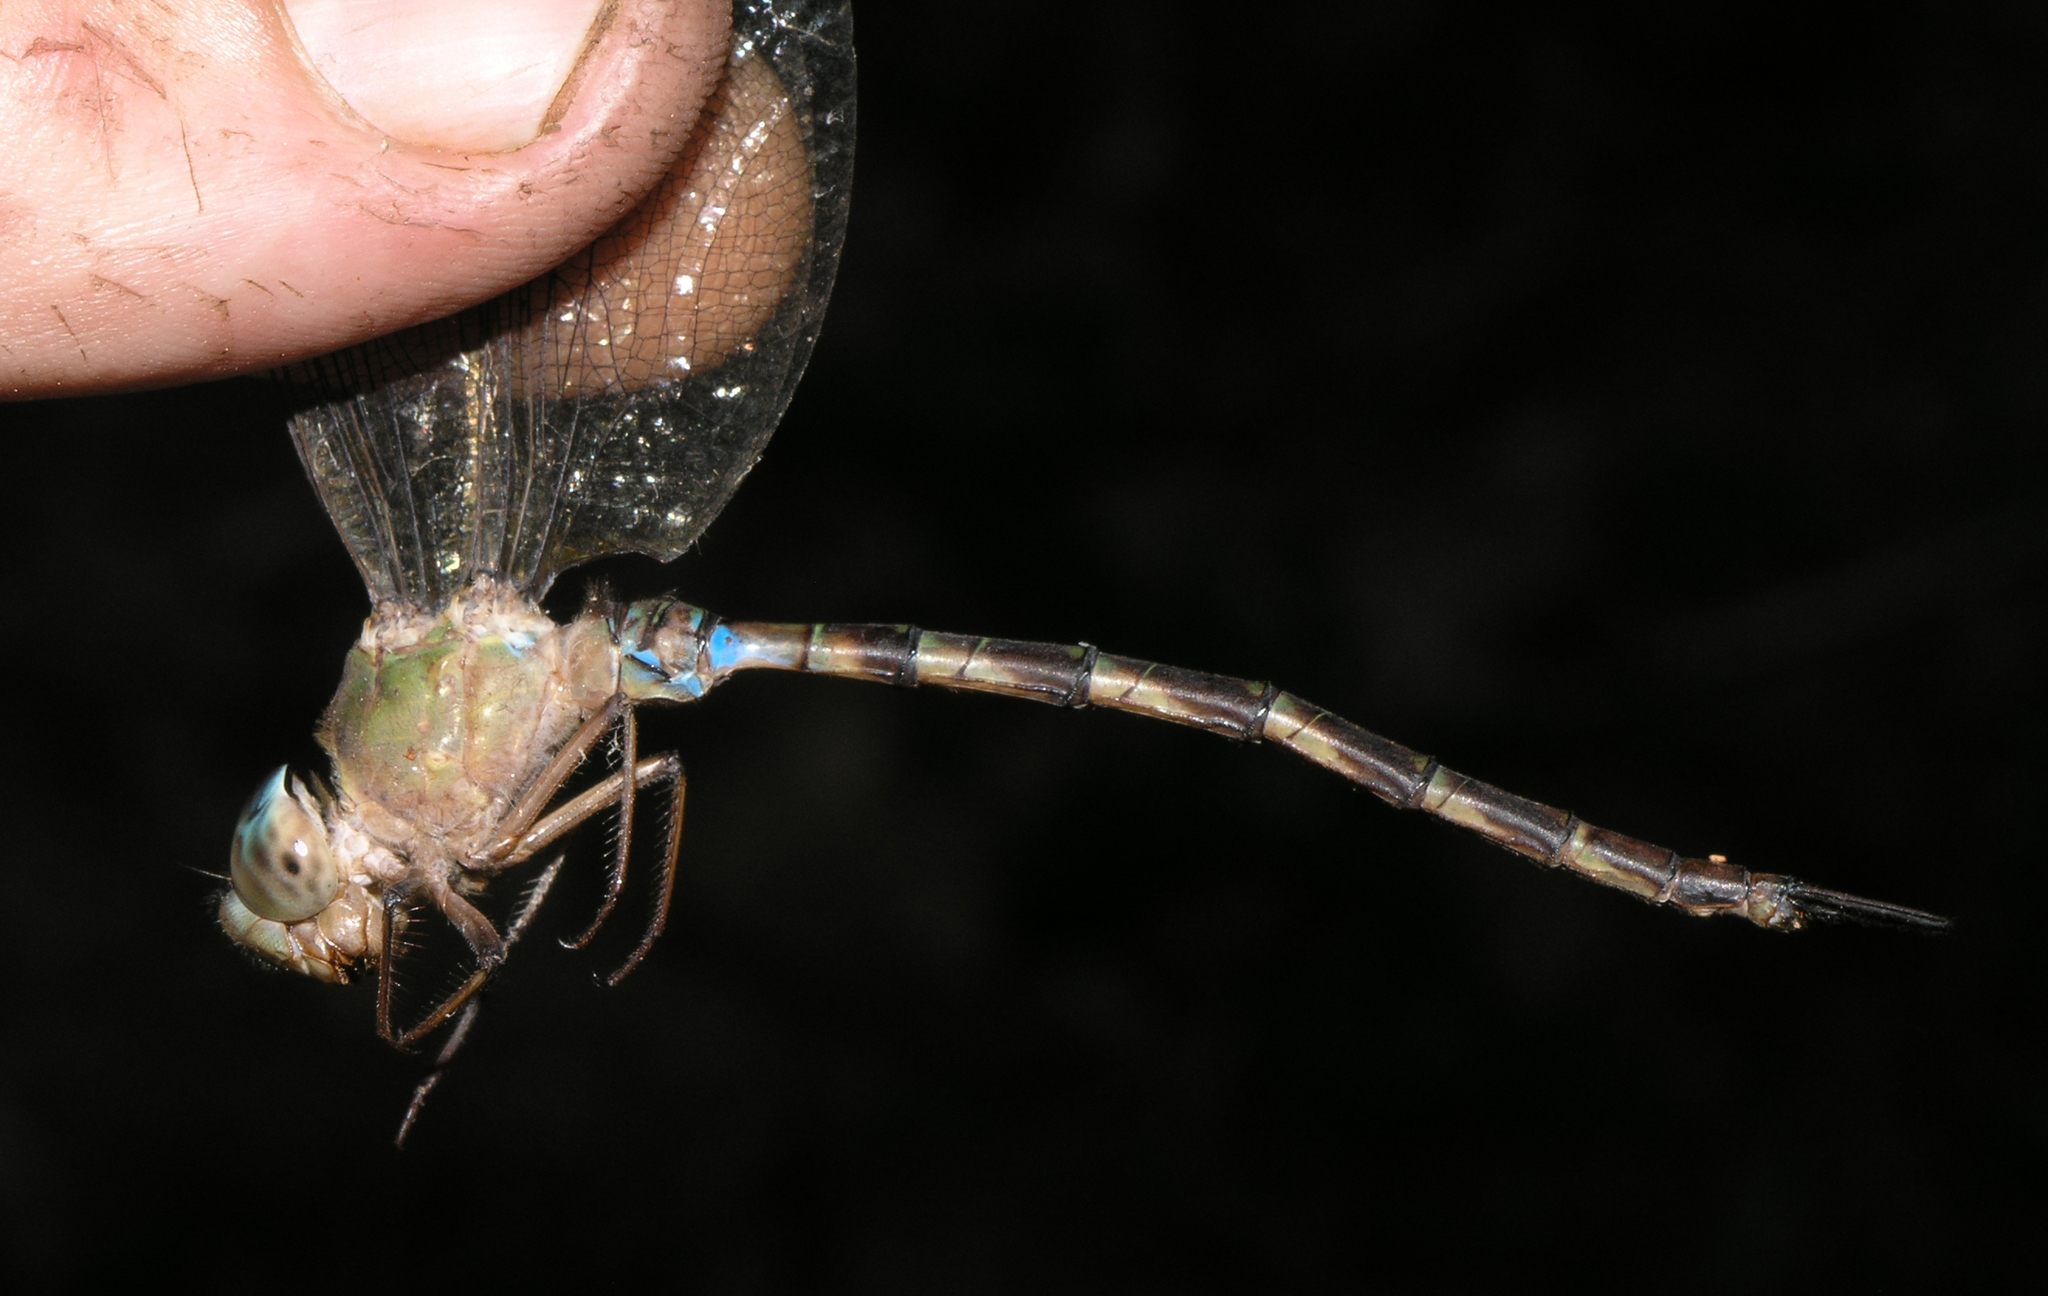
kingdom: Animalia
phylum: Arthropoda
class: Insecta
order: Odonata
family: Aeshnidae
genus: Gynacantha
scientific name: Gynacantha subinterrupta
